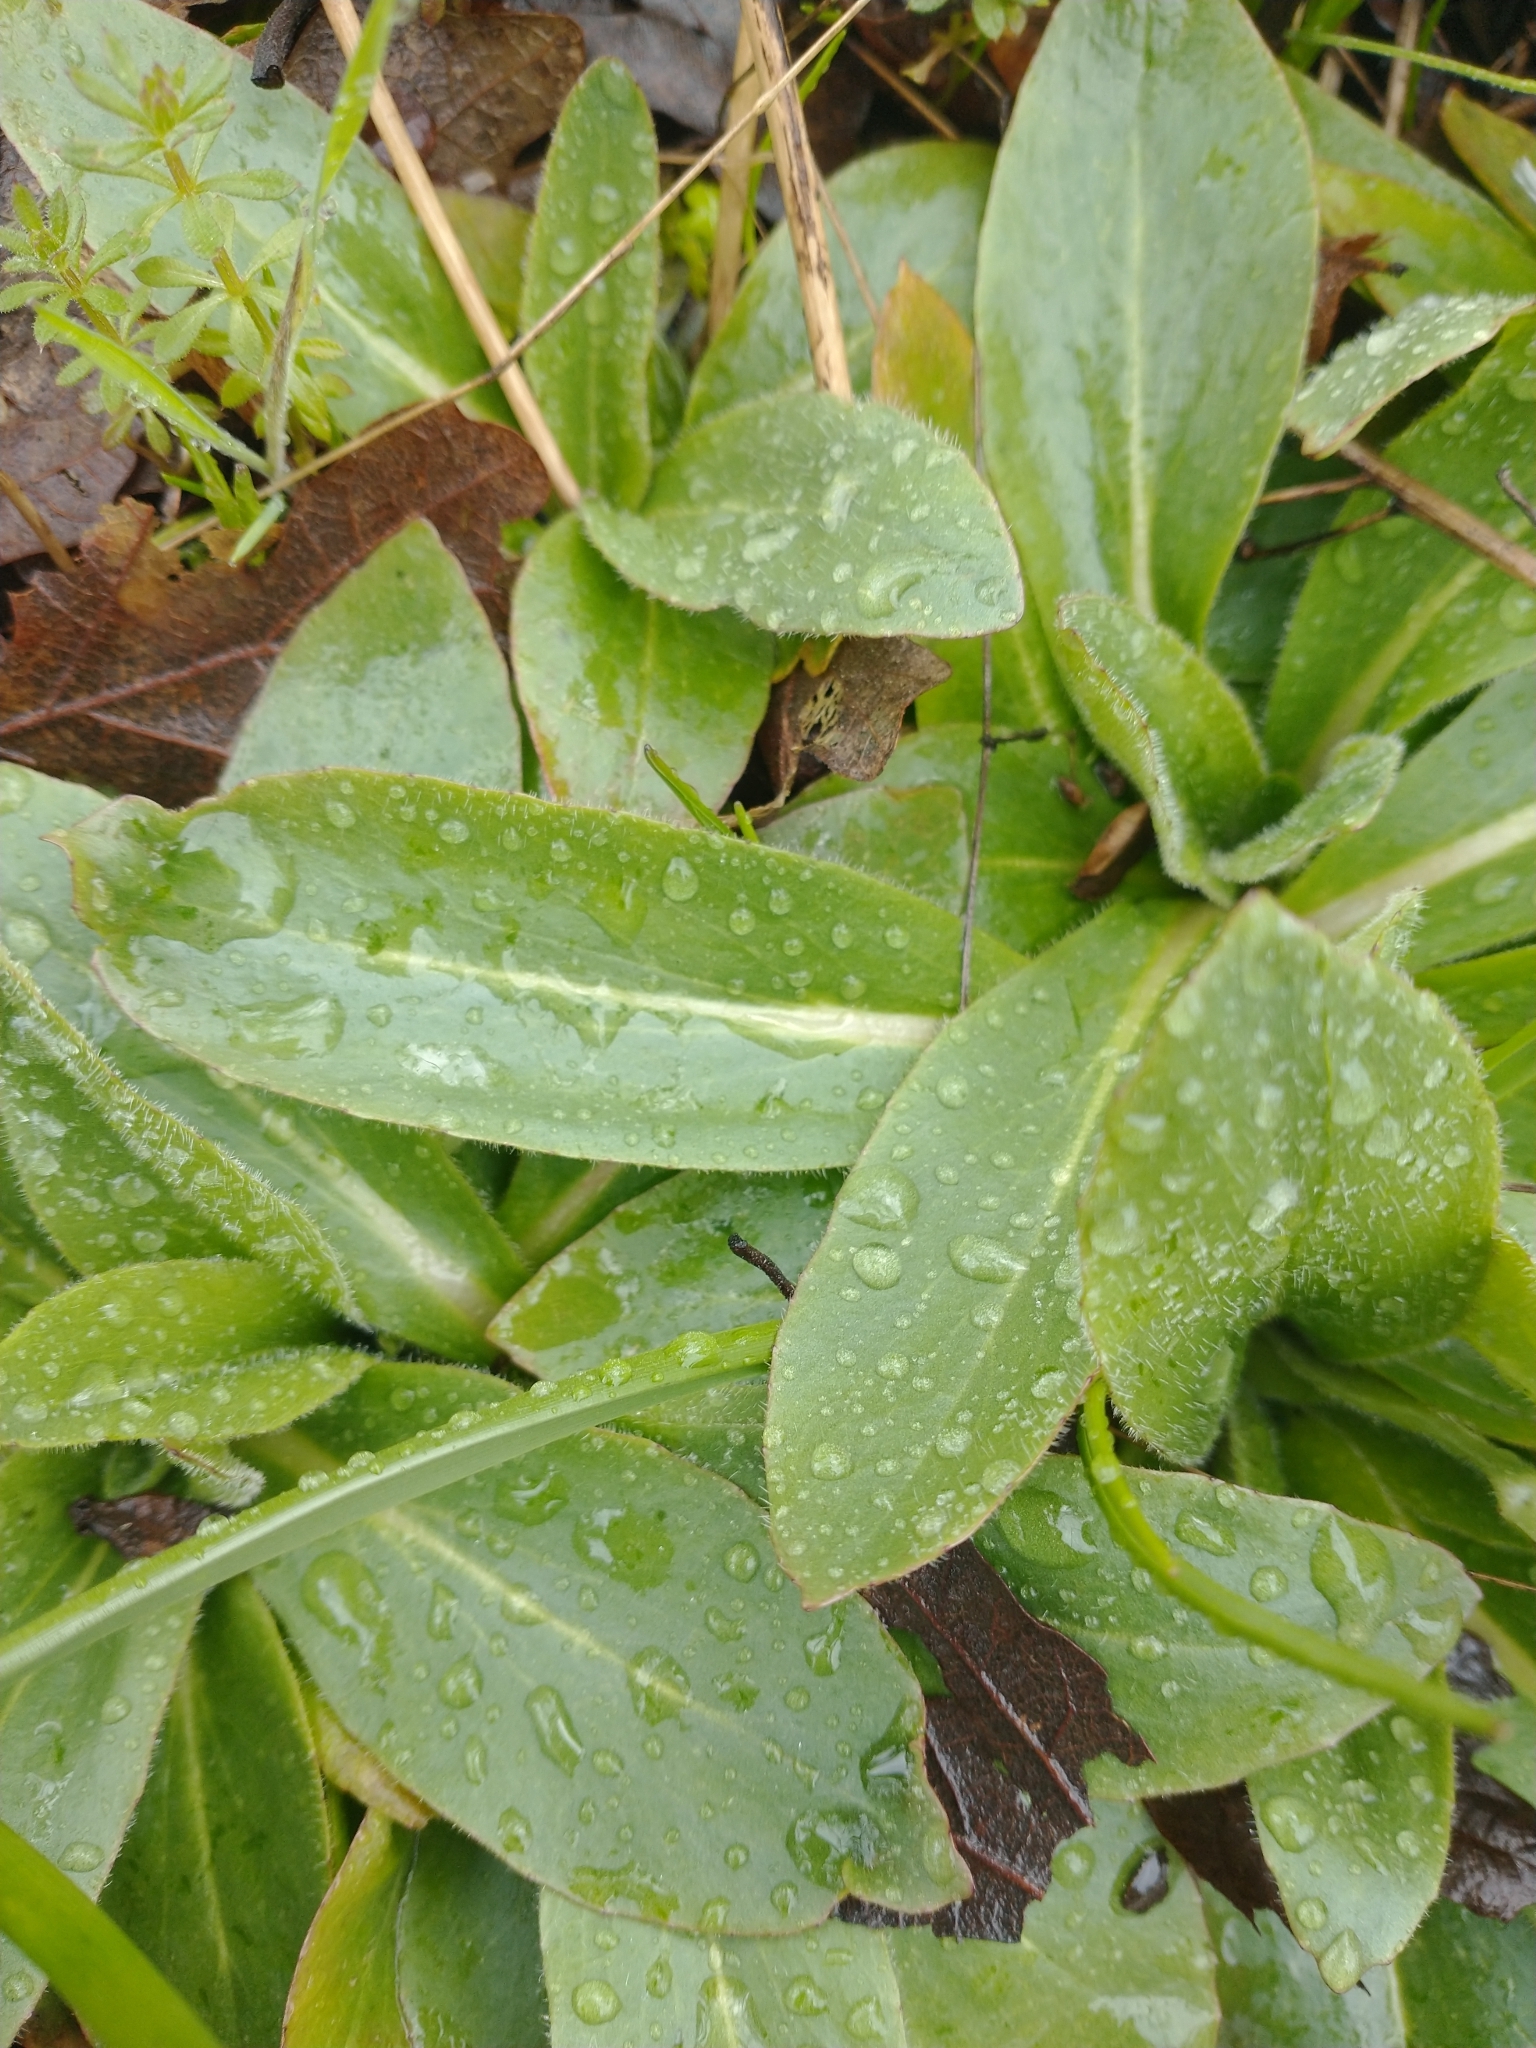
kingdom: Plantae
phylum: Tracheophyta
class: Magnoliopsida
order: Saxifragales
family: Saxifragaceae
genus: Micranthes
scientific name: Micranthes oregana
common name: Bog saxifrage
